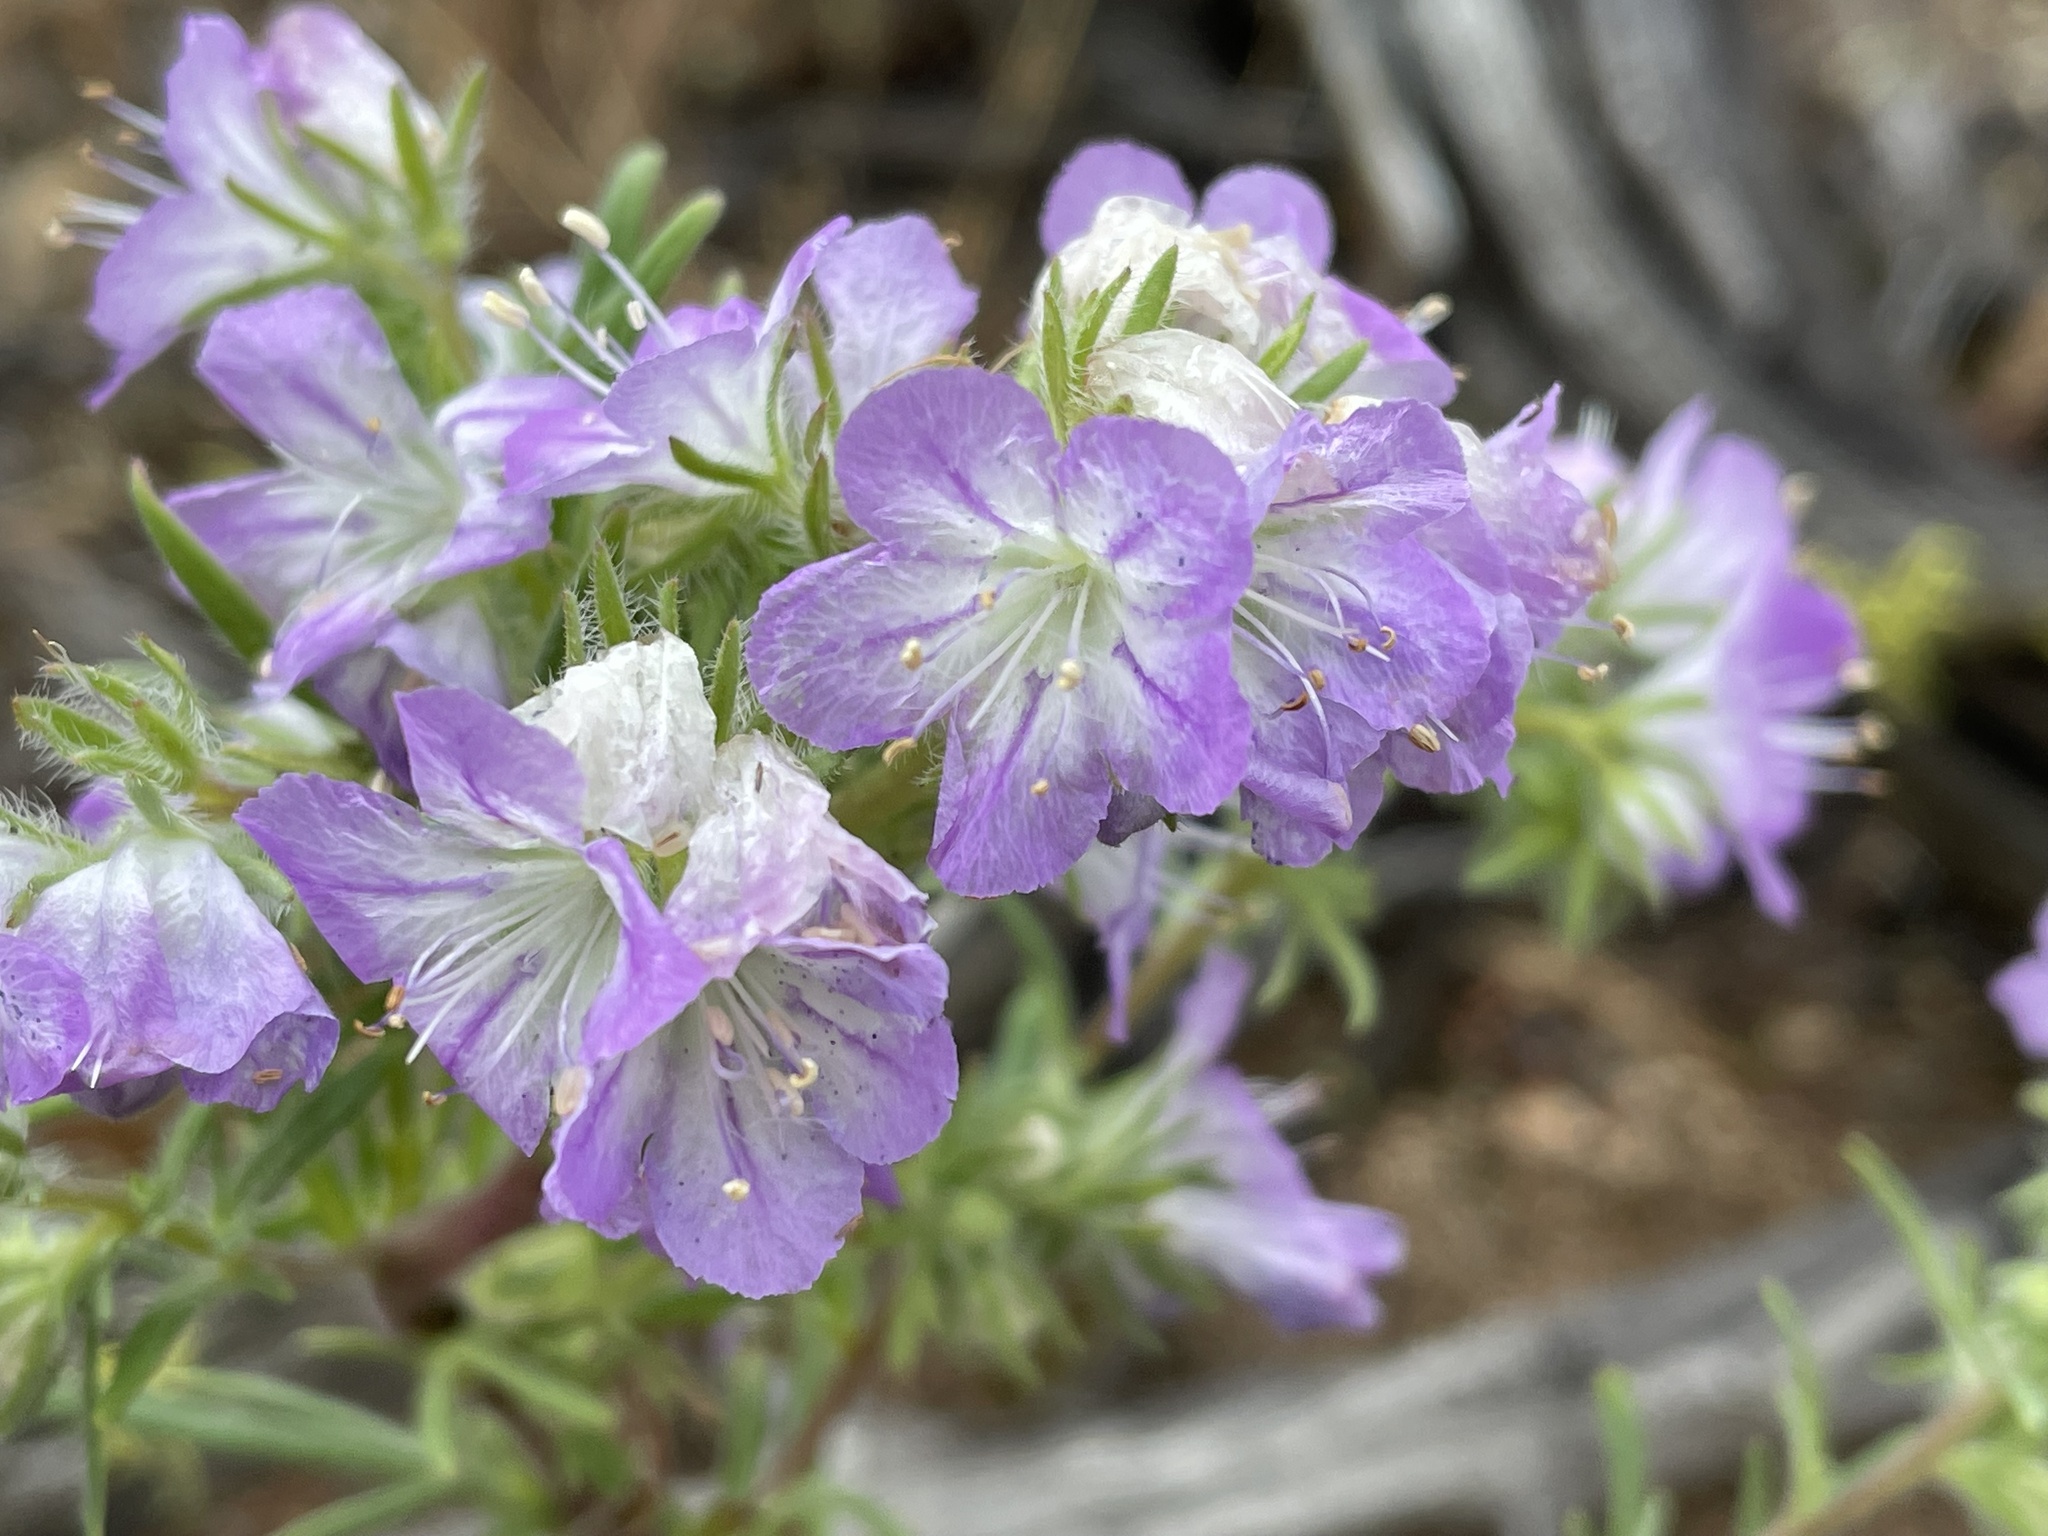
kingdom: Plantae
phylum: Tracheophyta
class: Magnoliopsida
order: Boraginales
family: Hydrophyllaceae
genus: Phacelia
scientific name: Phacelia linearis
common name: Linear-leaved phacelia
